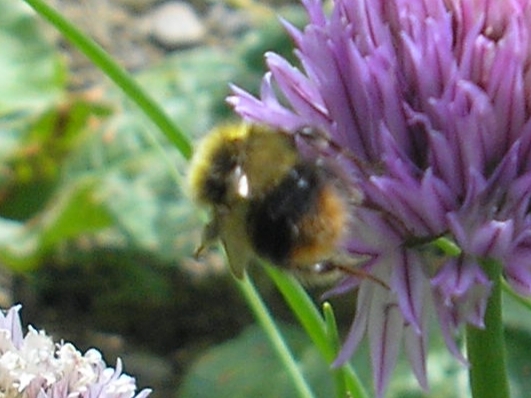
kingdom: Animalia
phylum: Arthropoda
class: Insecta
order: Hymenoptera
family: Apidae
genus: Bombus
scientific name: Bombus pratorum
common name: Early humble-bee
